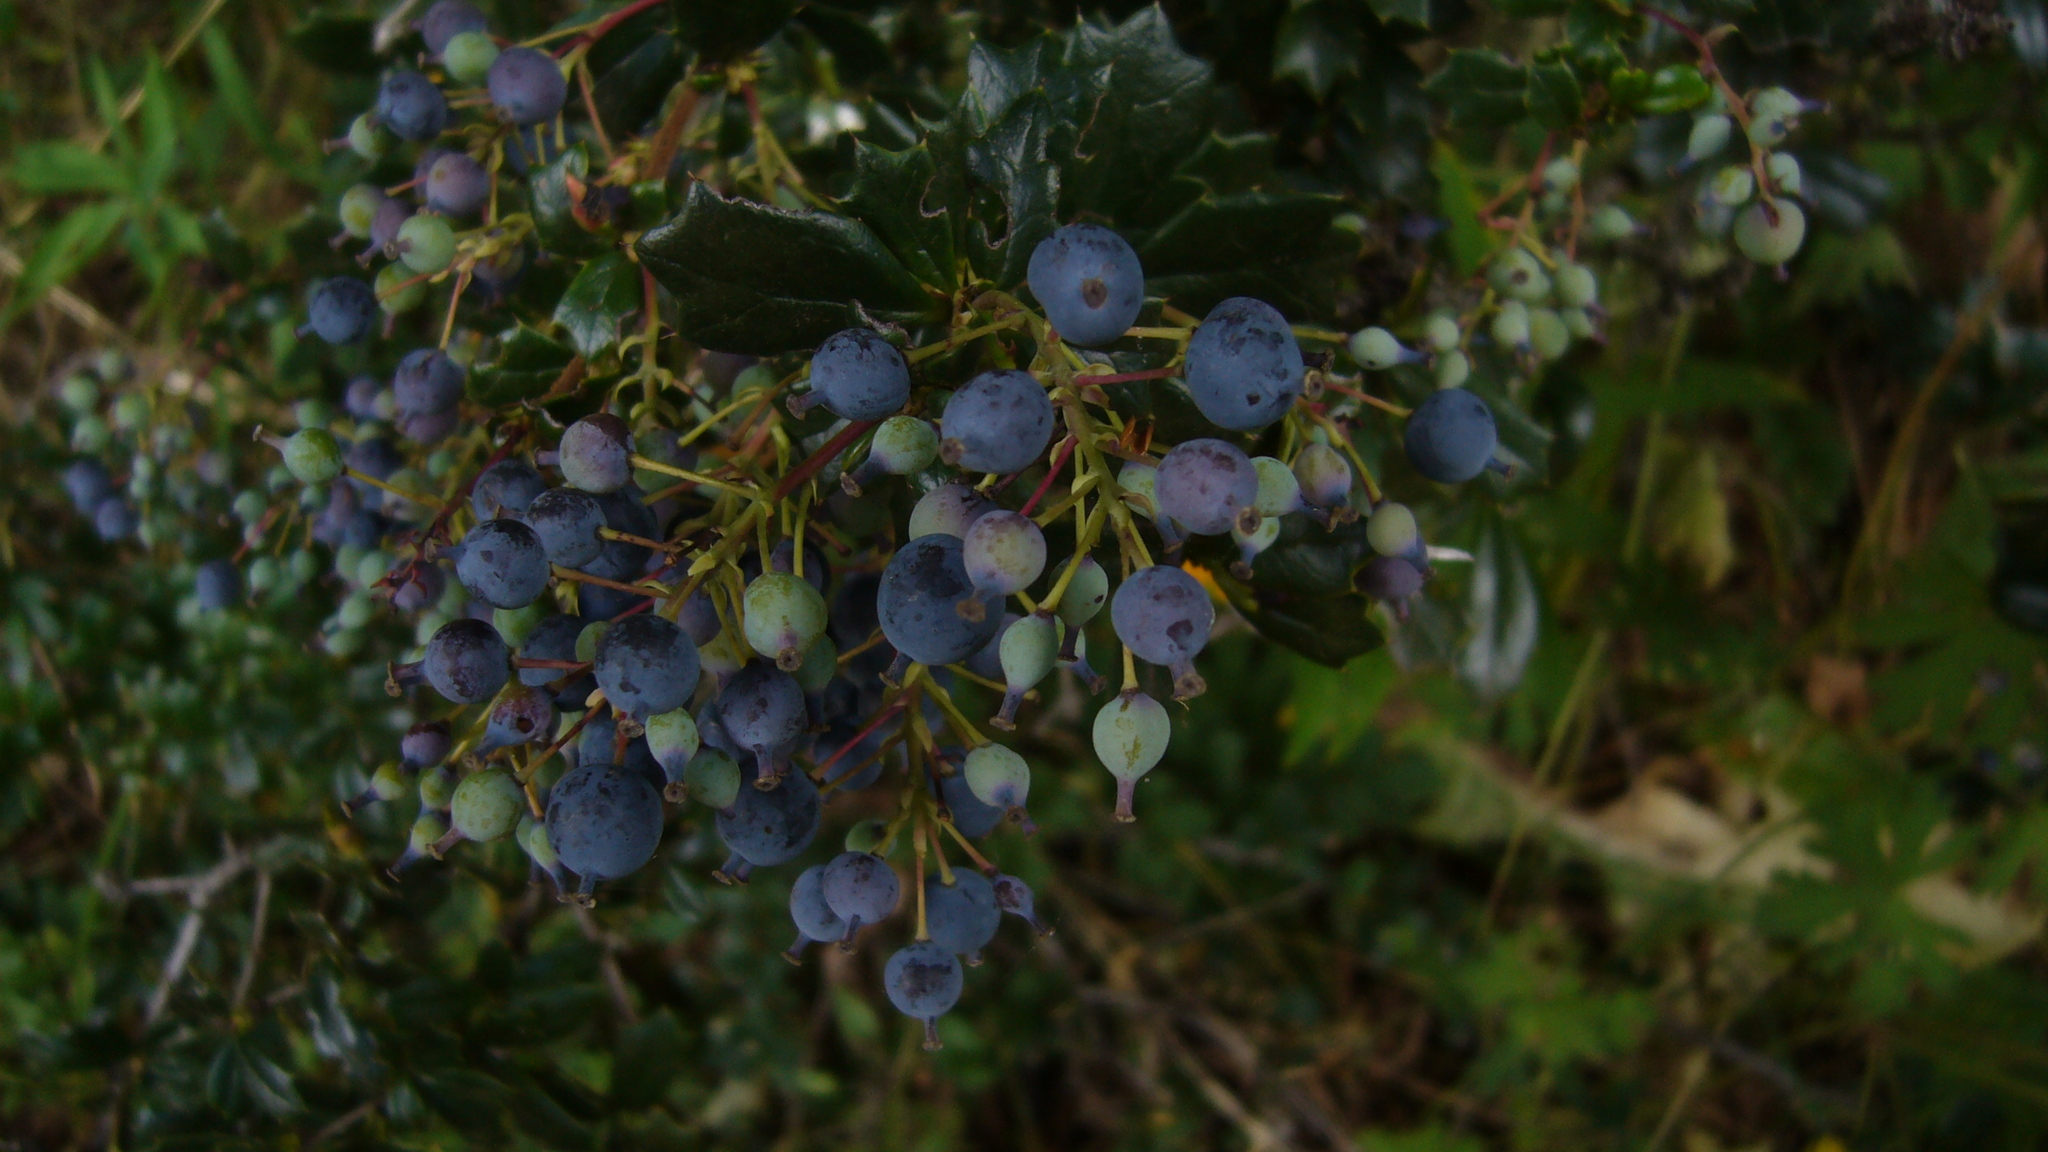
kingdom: Plantae
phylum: Tracheophyta
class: Magnoliopsida
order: Ranunculales
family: Berberidaceae
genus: Berberis
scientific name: Berberis darwinii
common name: Darwin's barberry
